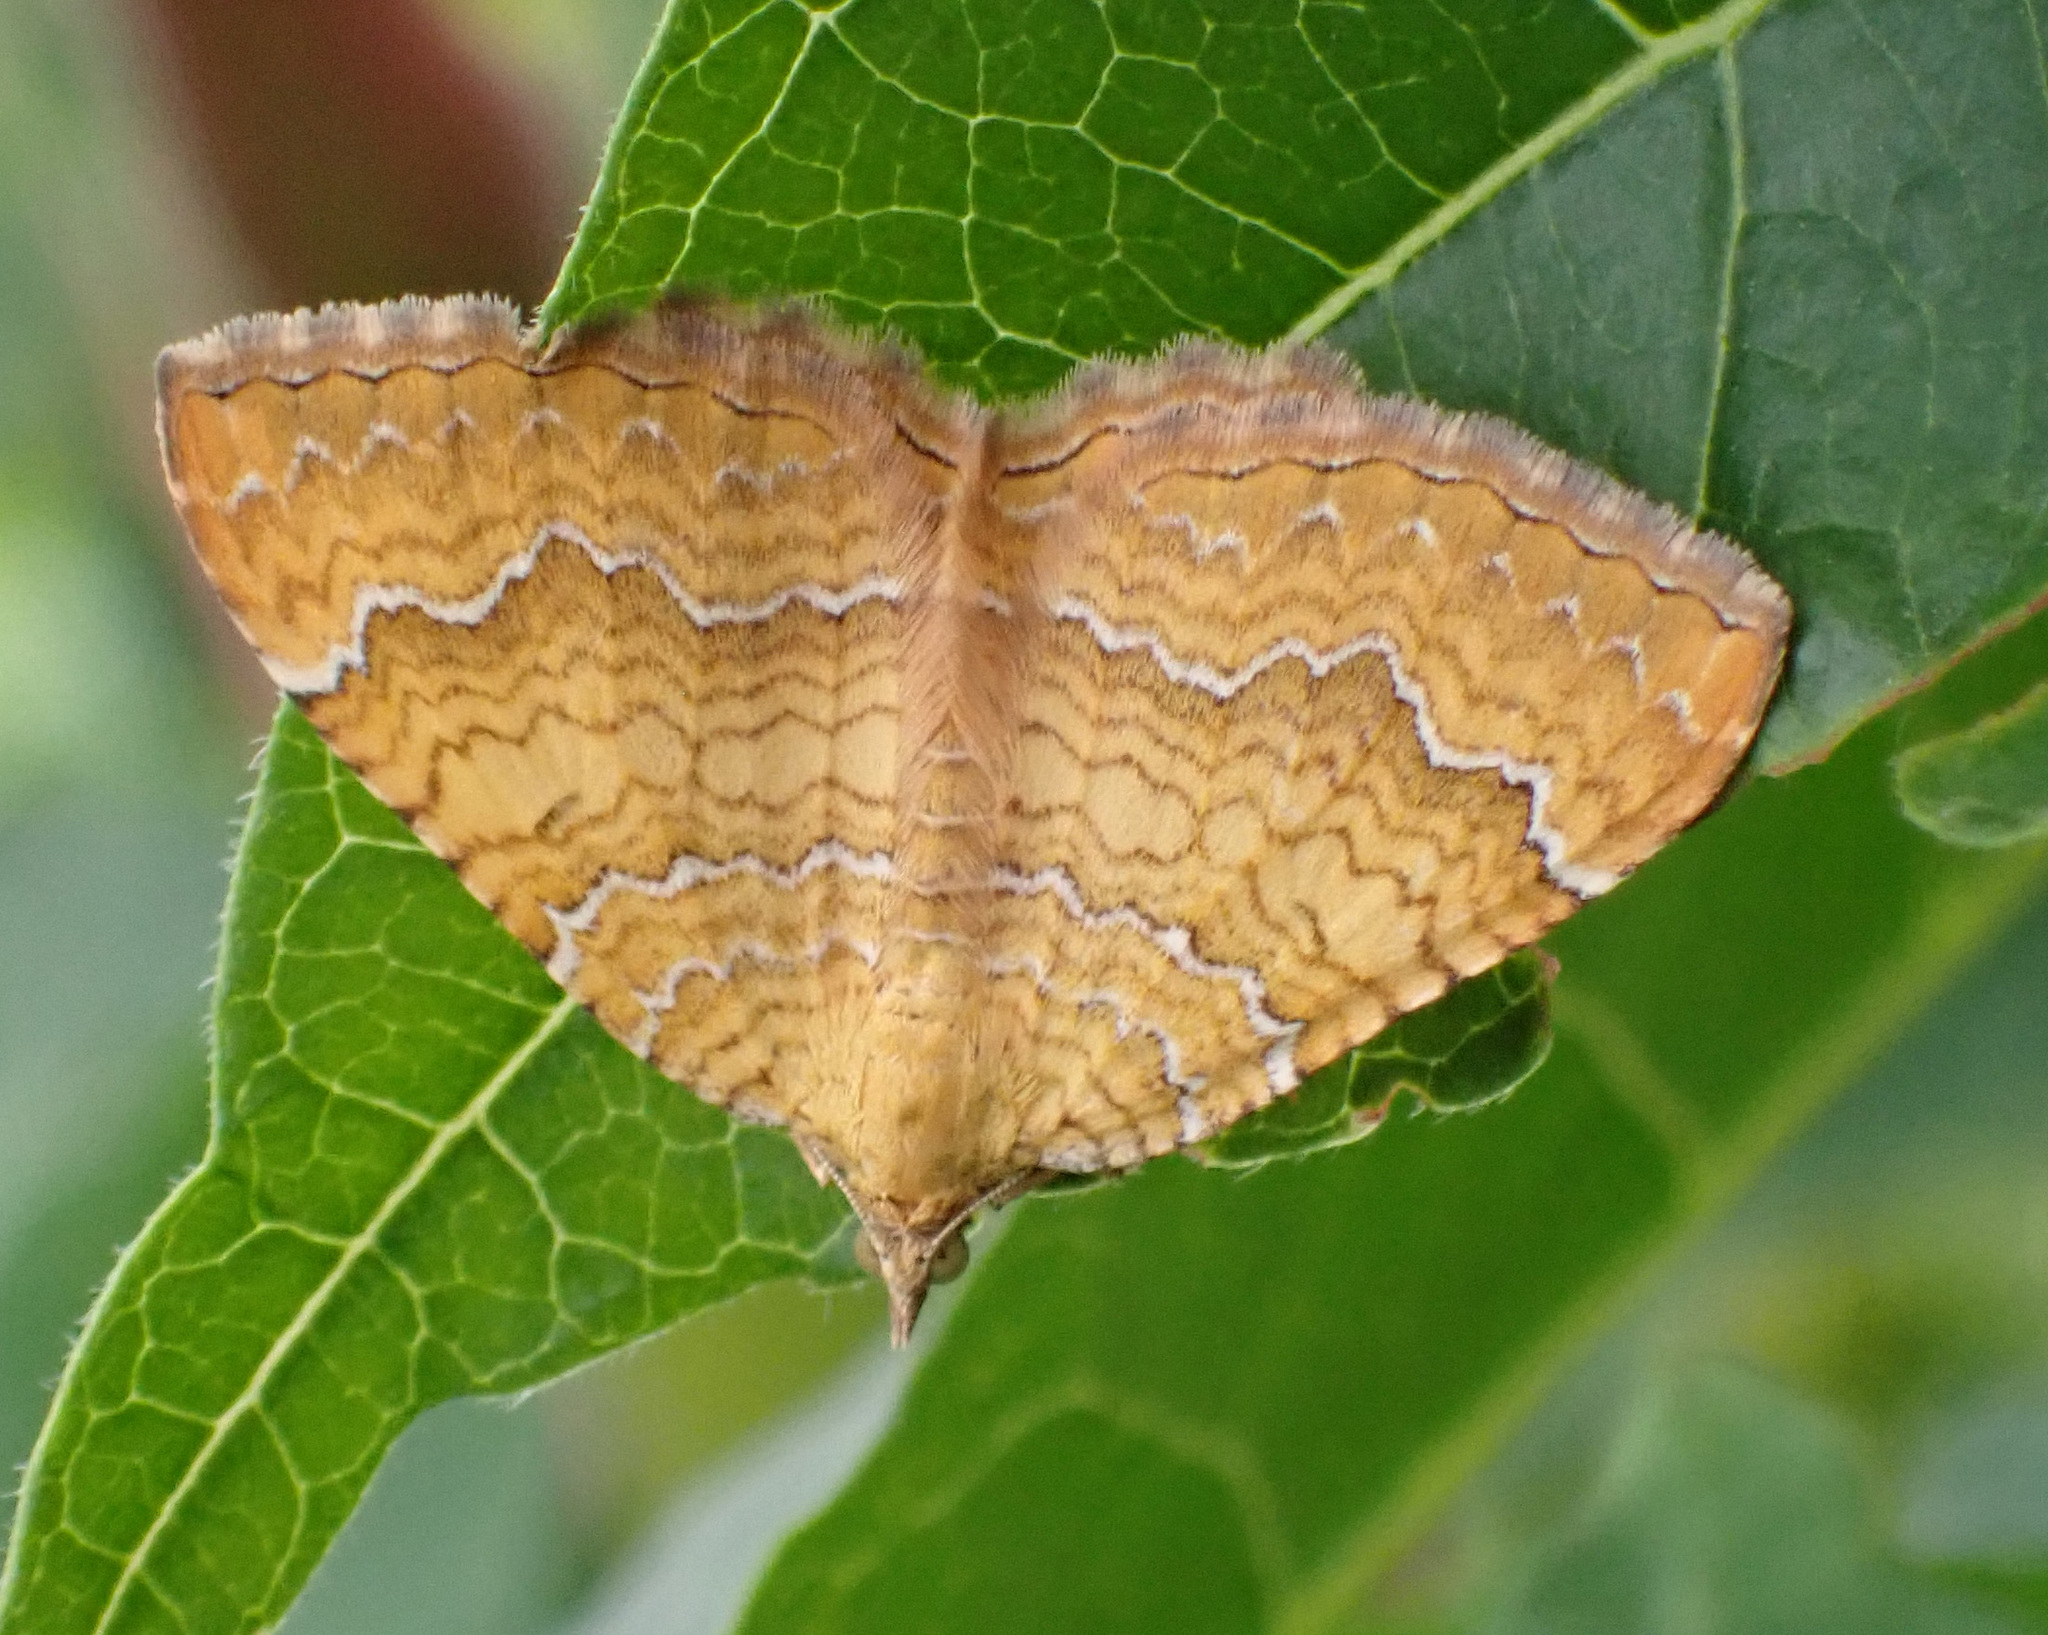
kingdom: Animalia
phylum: Arthropoda
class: Insecta
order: Lepidoptera
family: Geometridae
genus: Camptogramma
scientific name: Camptogramma bilineata
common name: Yellow shell
